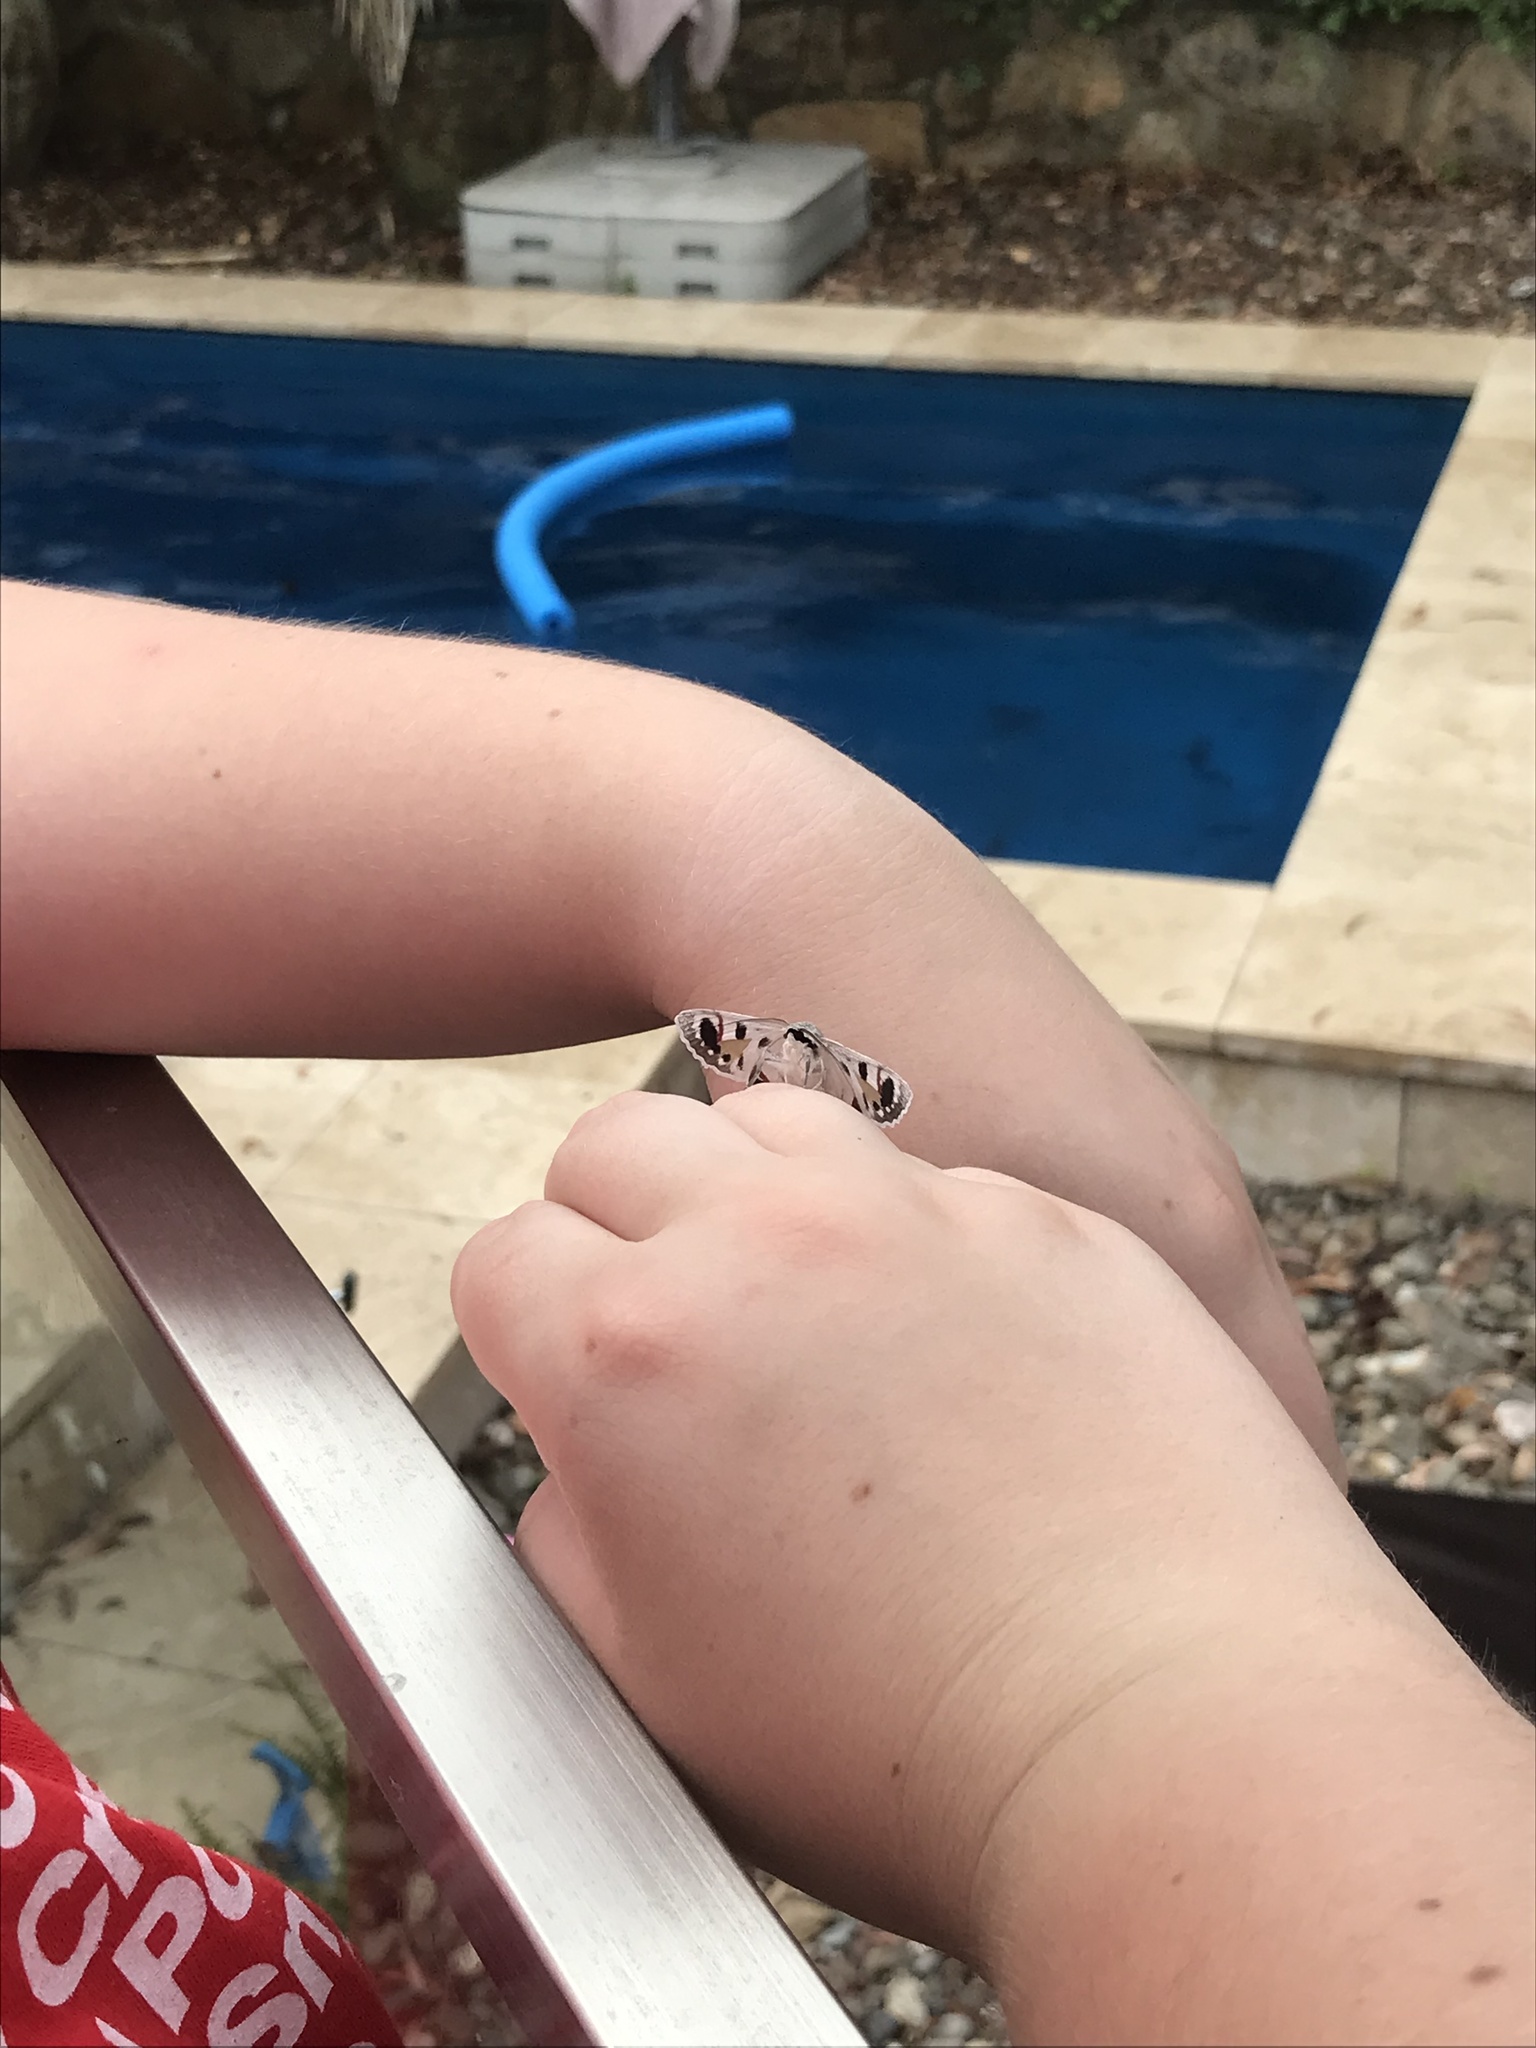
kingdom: Animalia
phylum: Arthropoda
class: Insecta
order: Lepidoptera
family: Geometridae
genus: Crypsiphona
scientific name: Crypsiphona ocultaria
